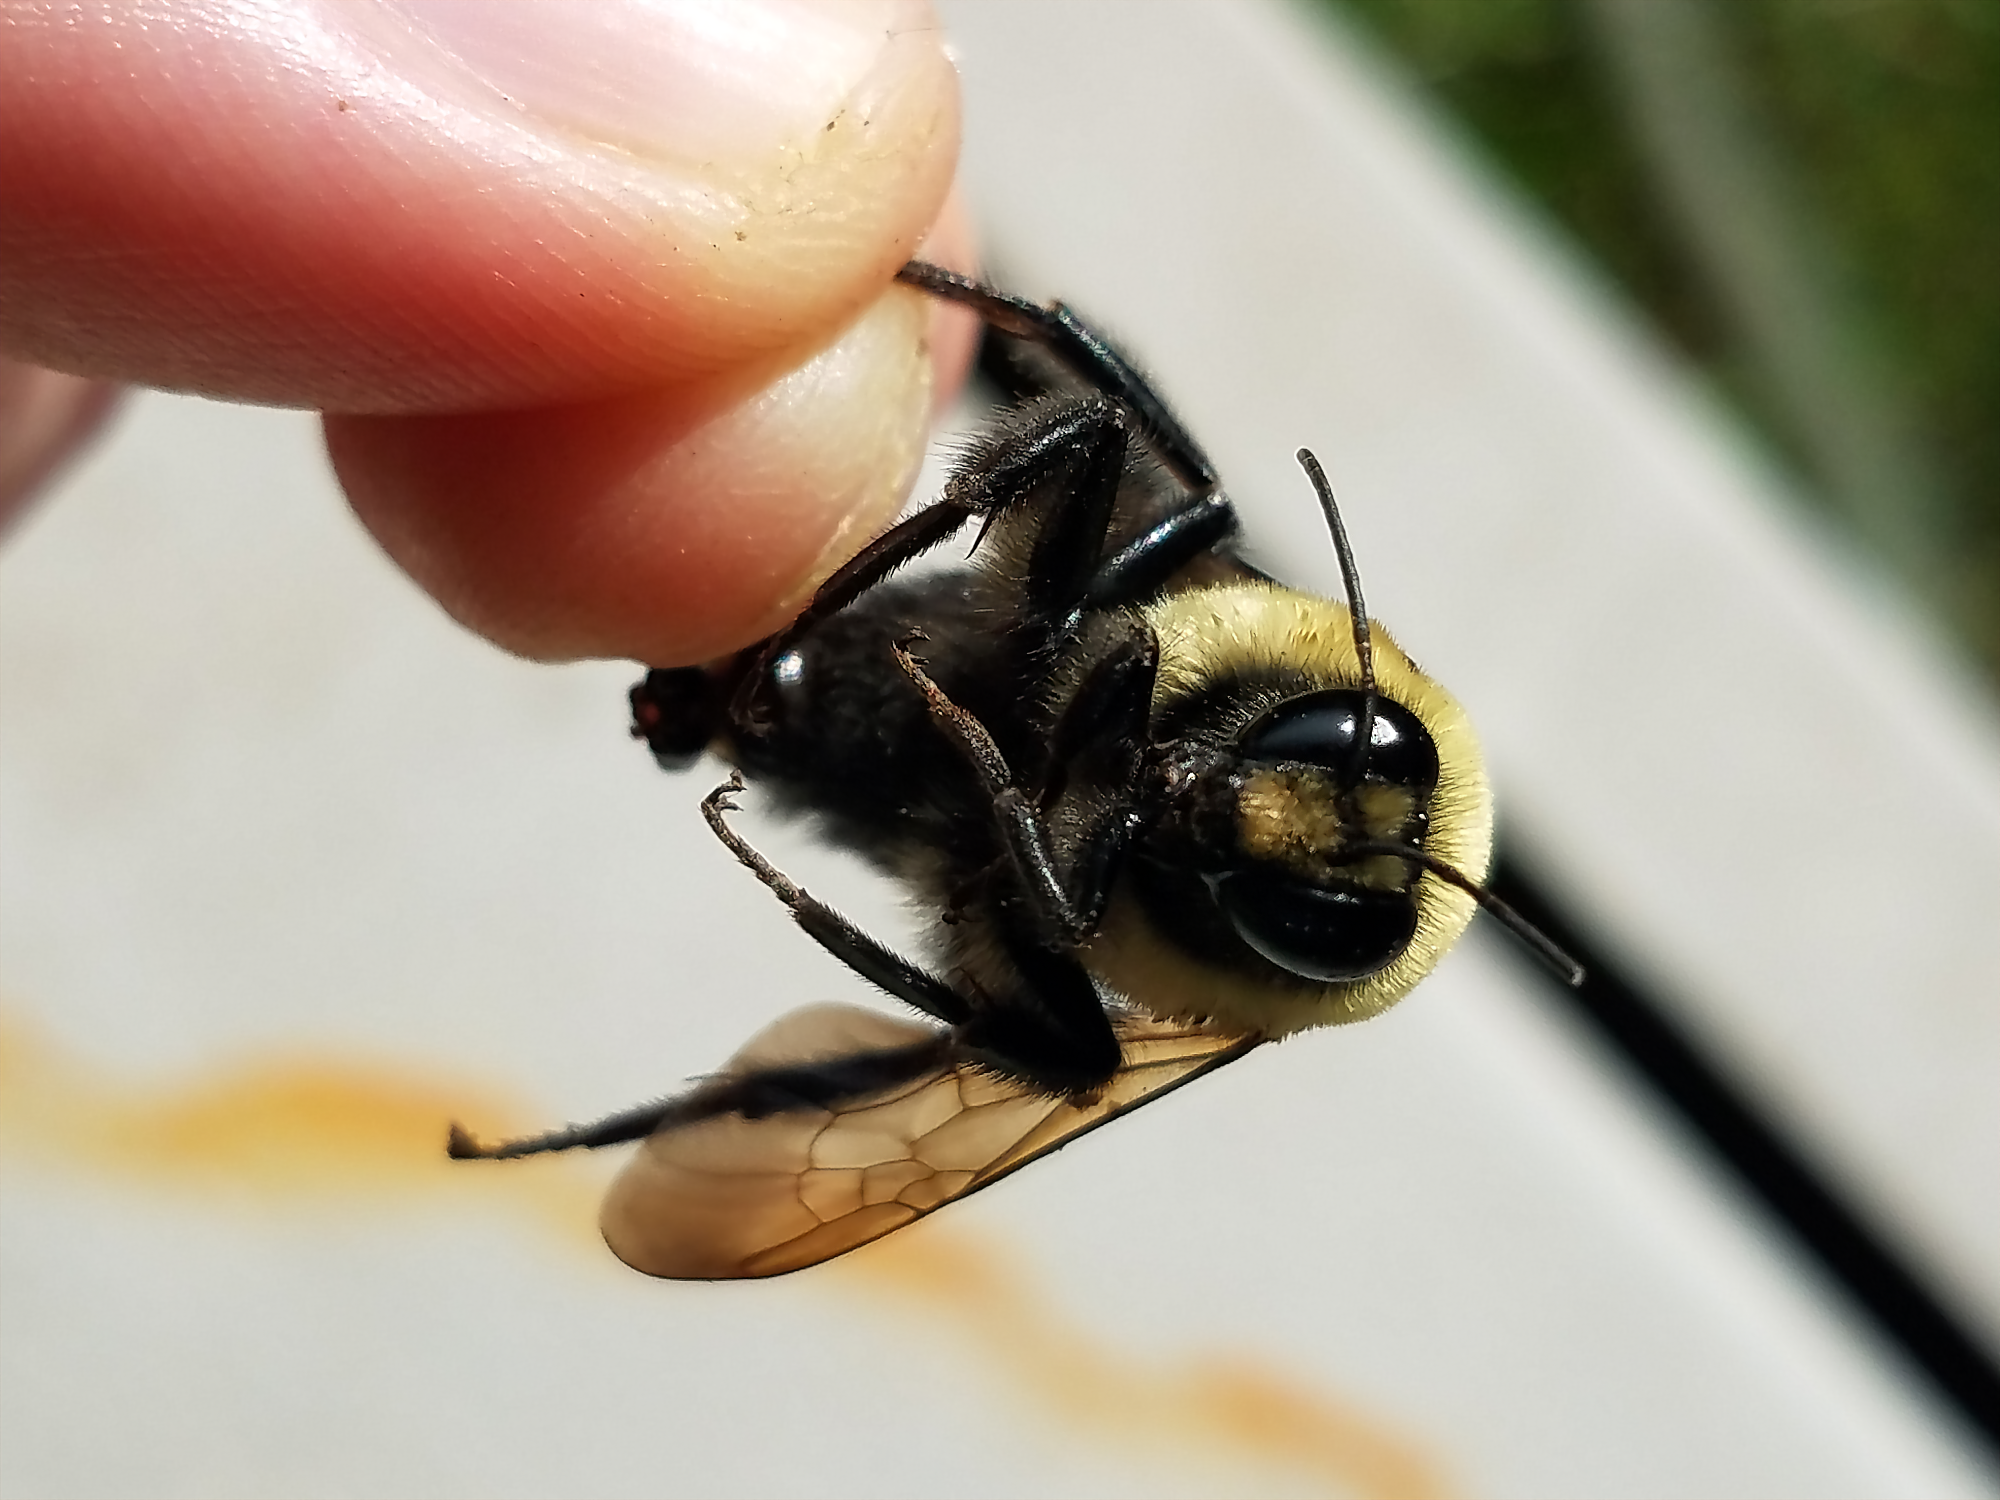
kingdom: Animalia
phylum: Arthropoda
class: Insecta
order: Hymenoptera
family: Apidae
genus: Bombus
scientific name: Bombus griseocollis
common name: Brown-belted bumble bee
